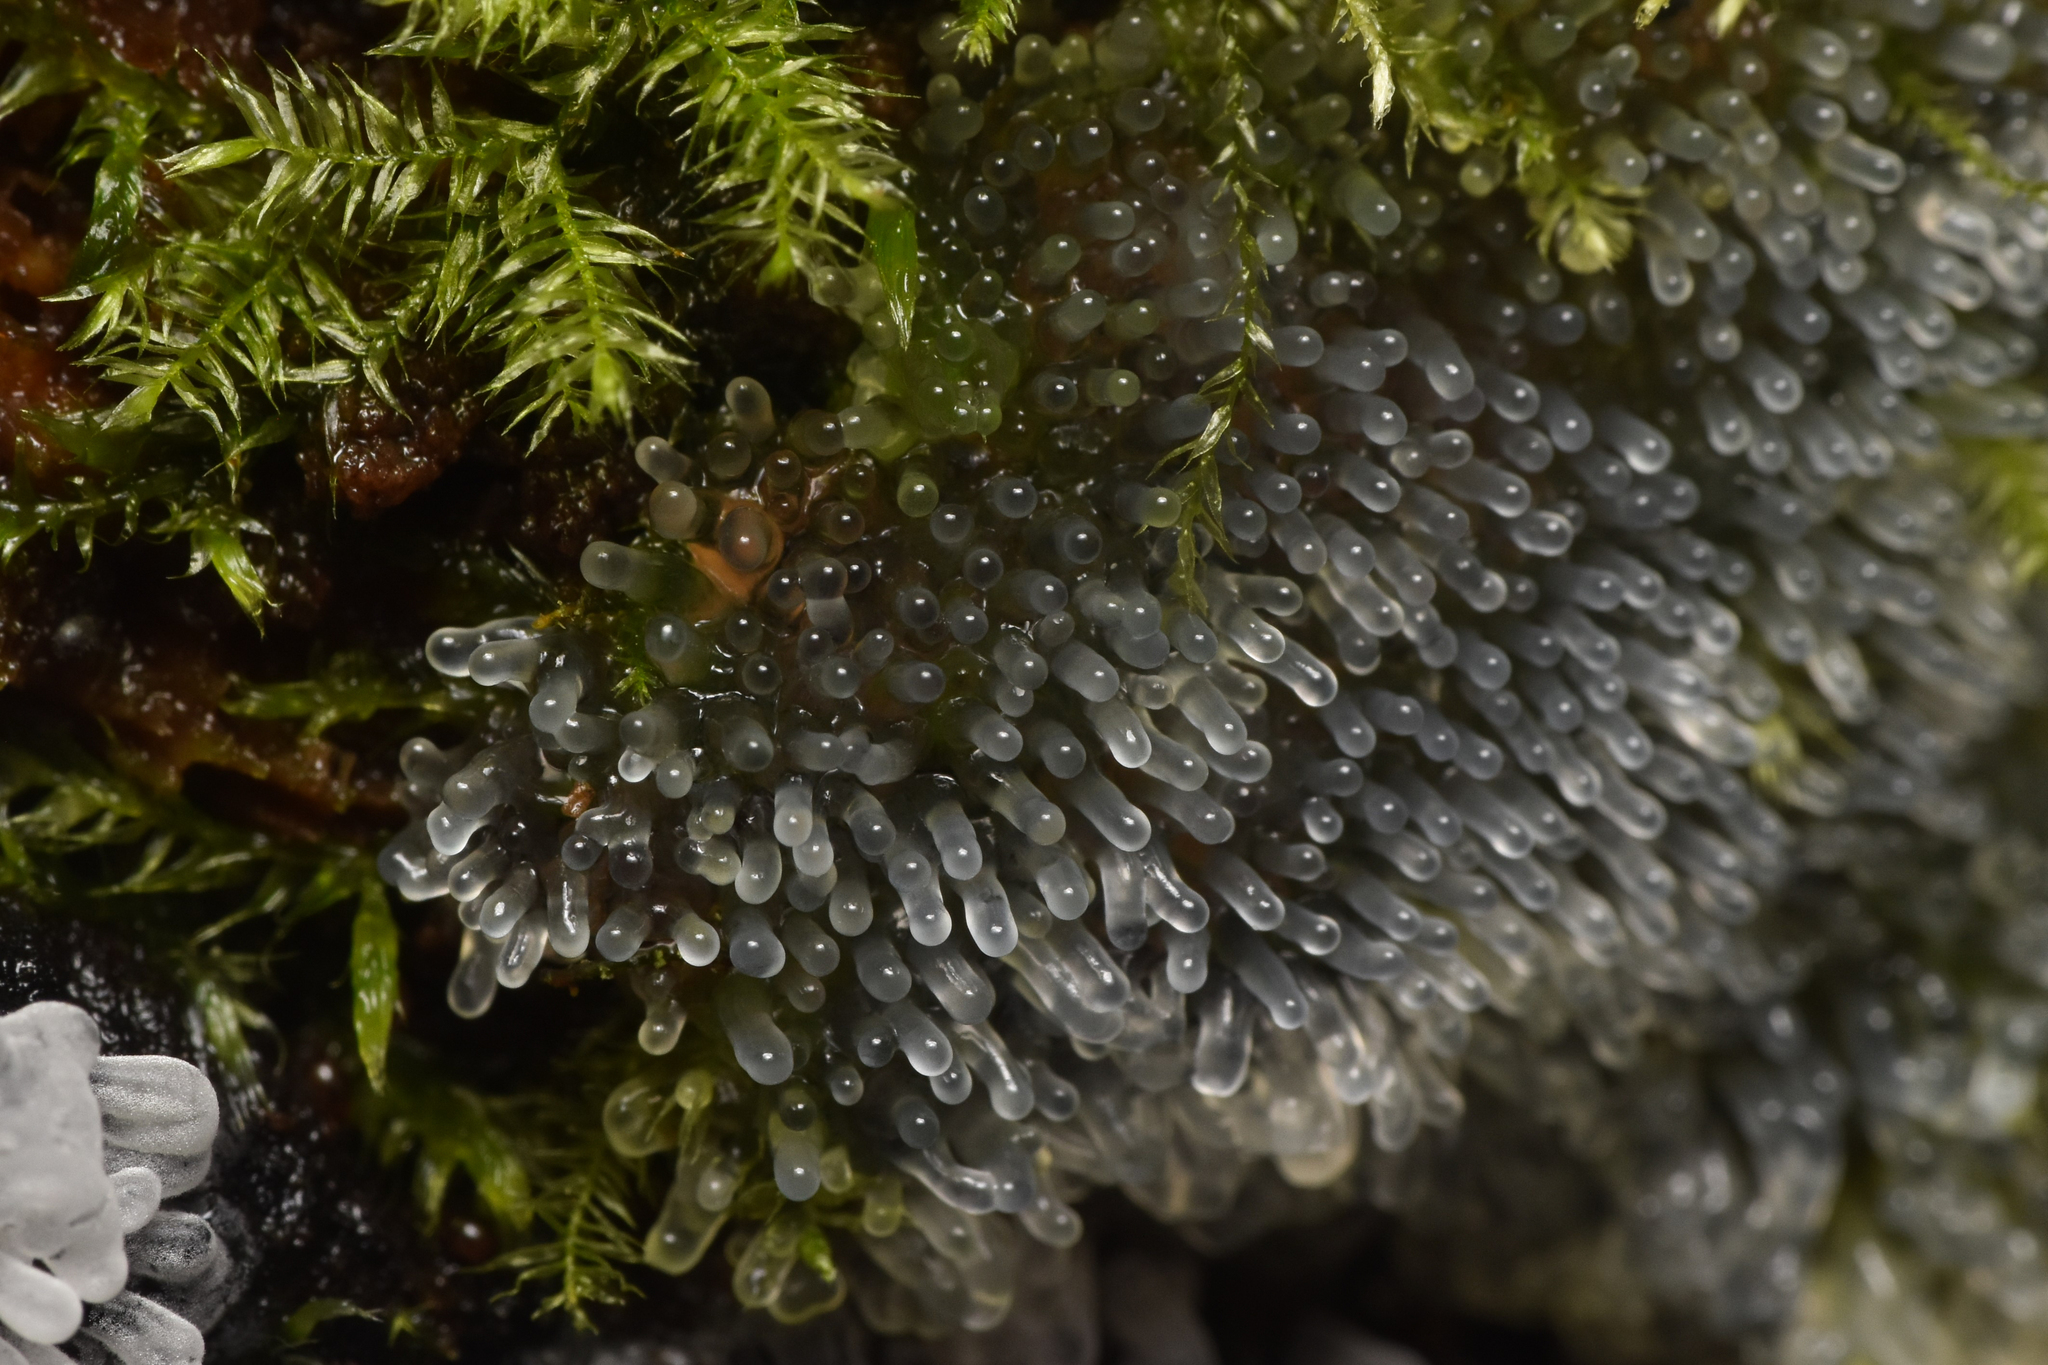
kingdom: Protozoa
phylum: Mycetozoa
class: Protosteliomycetes
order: Ceratiomyxales
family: Ceratiomyxaceae
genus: Ceratiomyxa
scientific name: Ceratiomyxa fruticulosa
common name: Honeycomb coral slime mold
